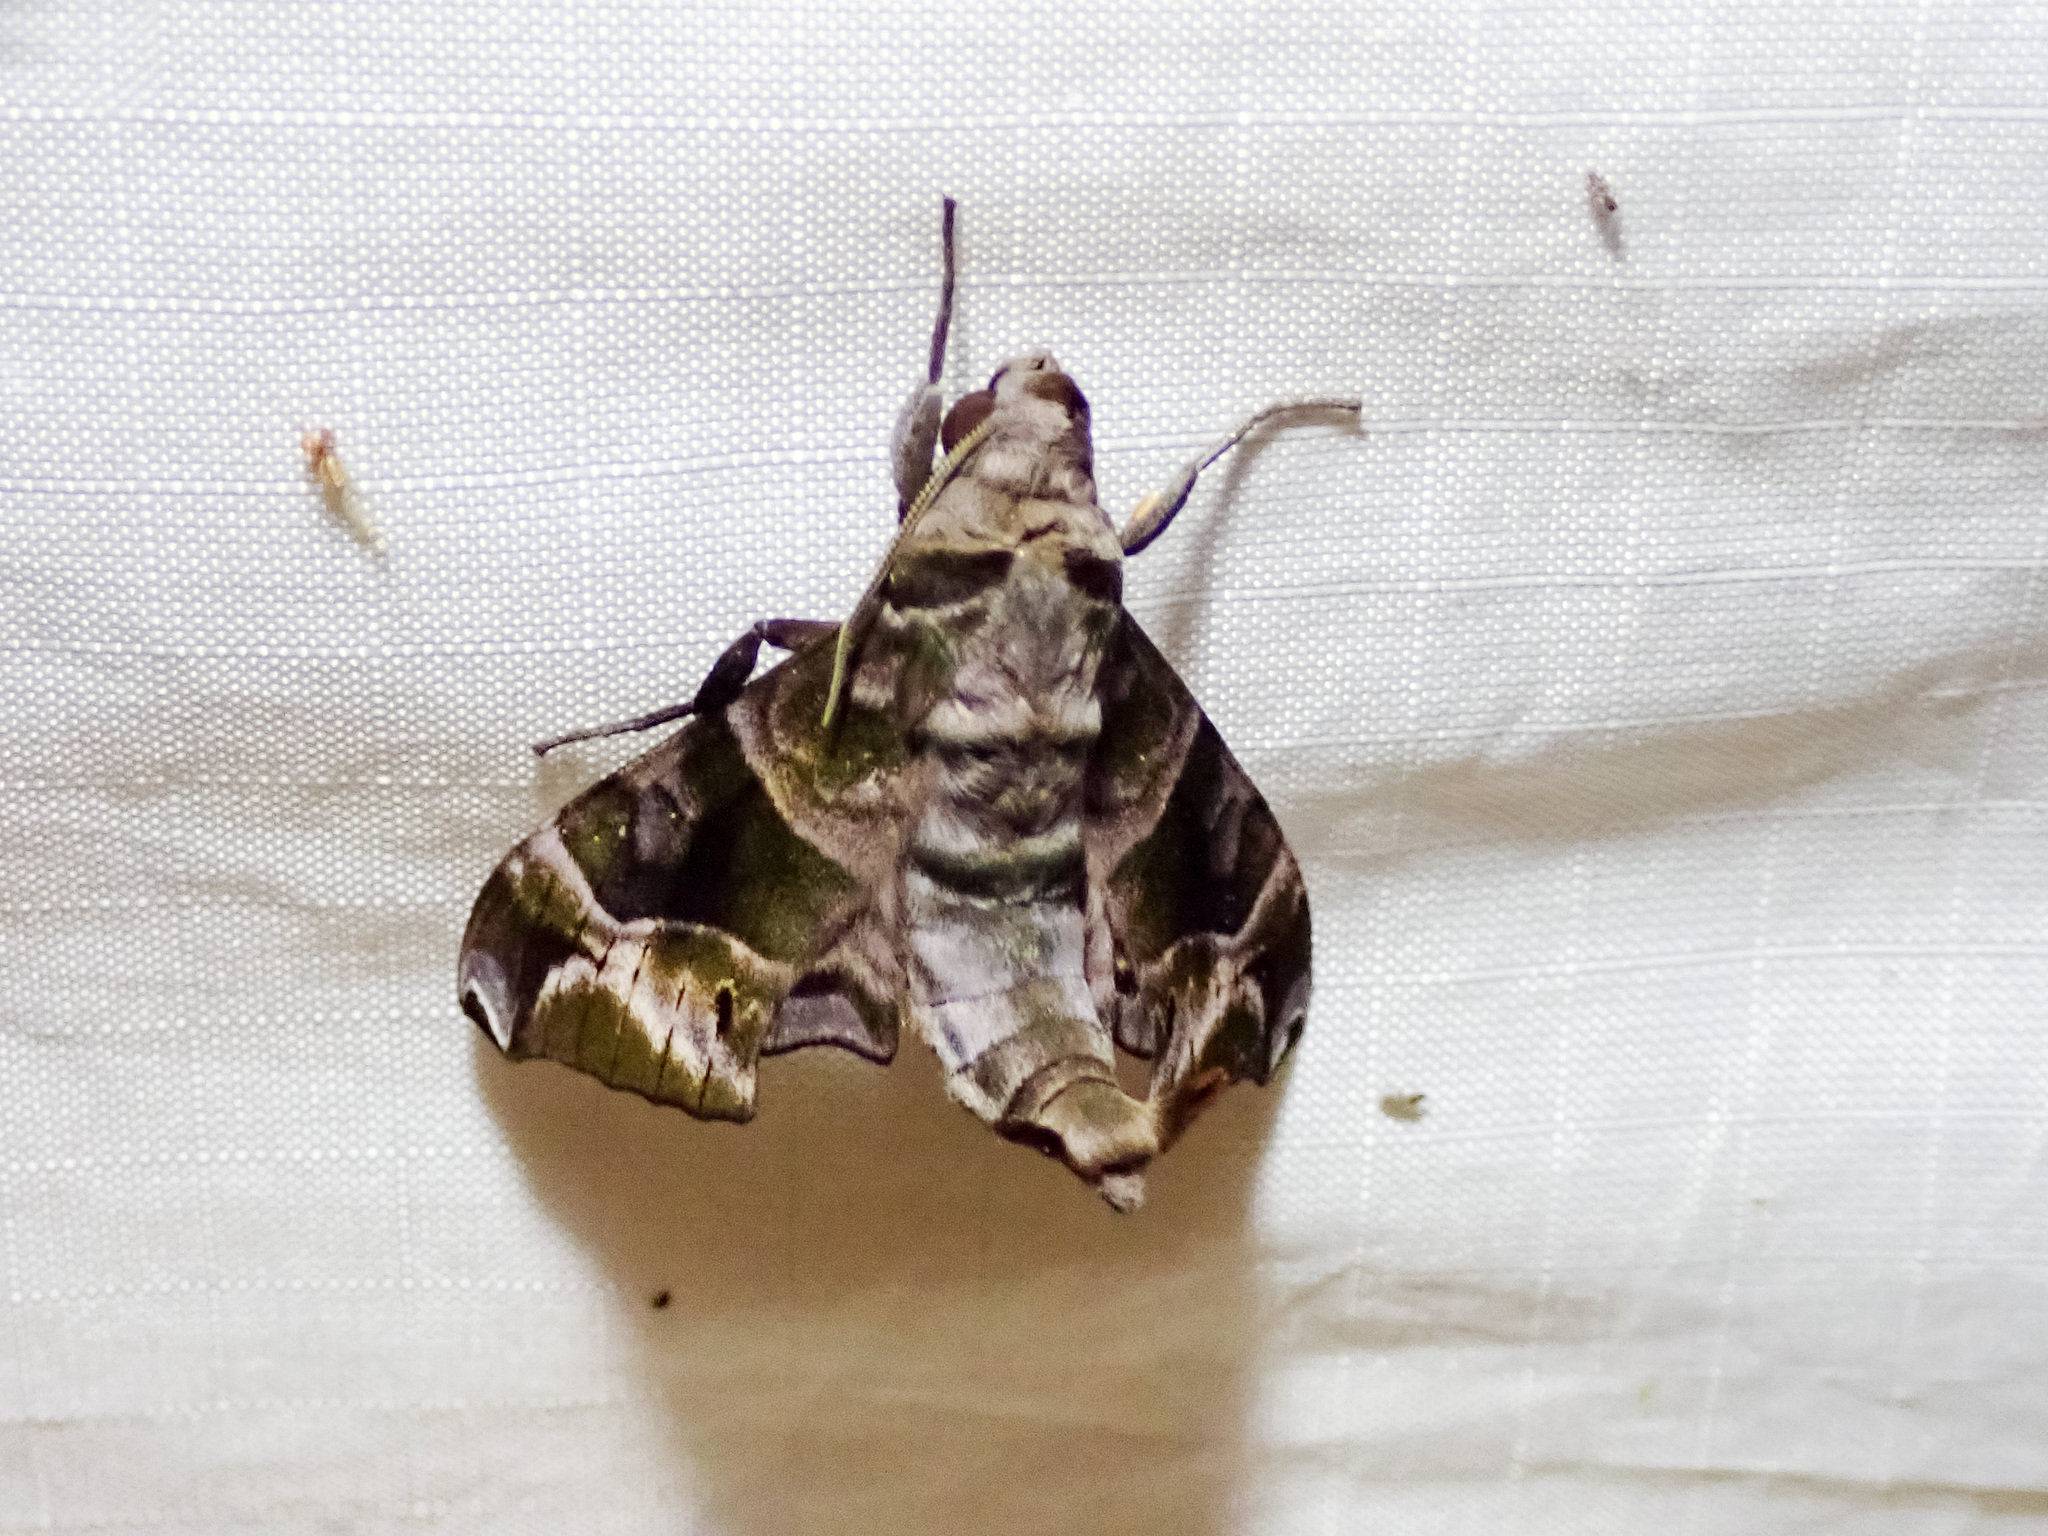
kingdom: Animalia
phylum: Arthropoda
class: Insecta
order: Lepidoptera
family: Sphingidae
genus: Craspedortha
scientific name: Craspedortha porphyria
